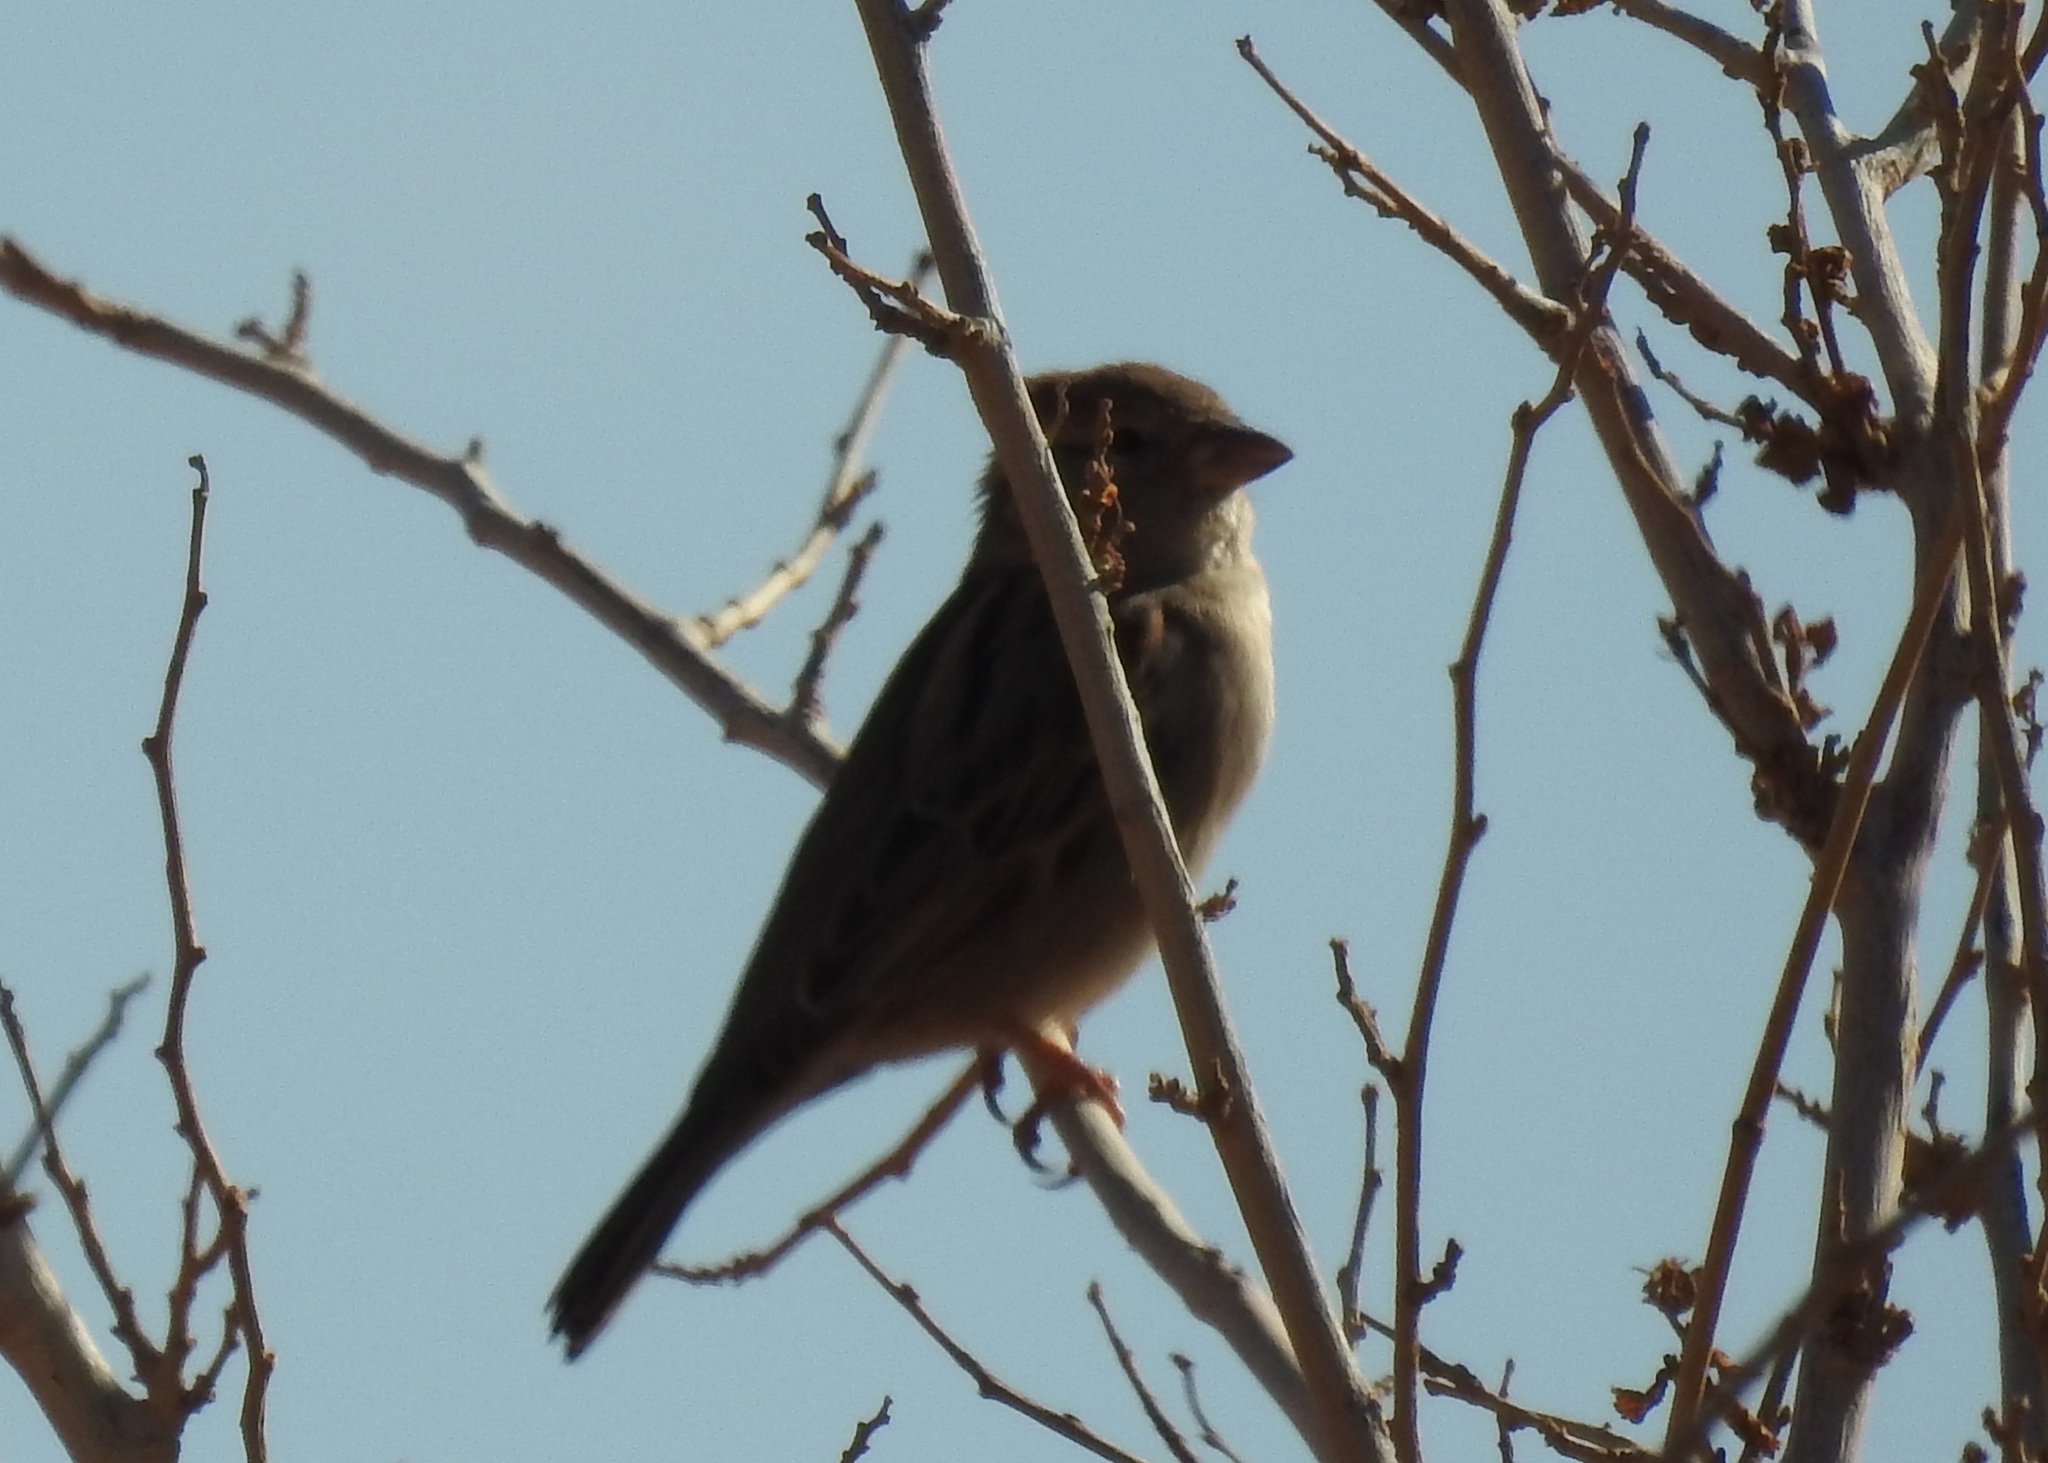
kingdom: Animalia
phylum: Chordata
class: Aves
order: Passeriformes
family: Passeridae
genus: Passer
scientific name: Passer domesticus
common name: House sparrow
